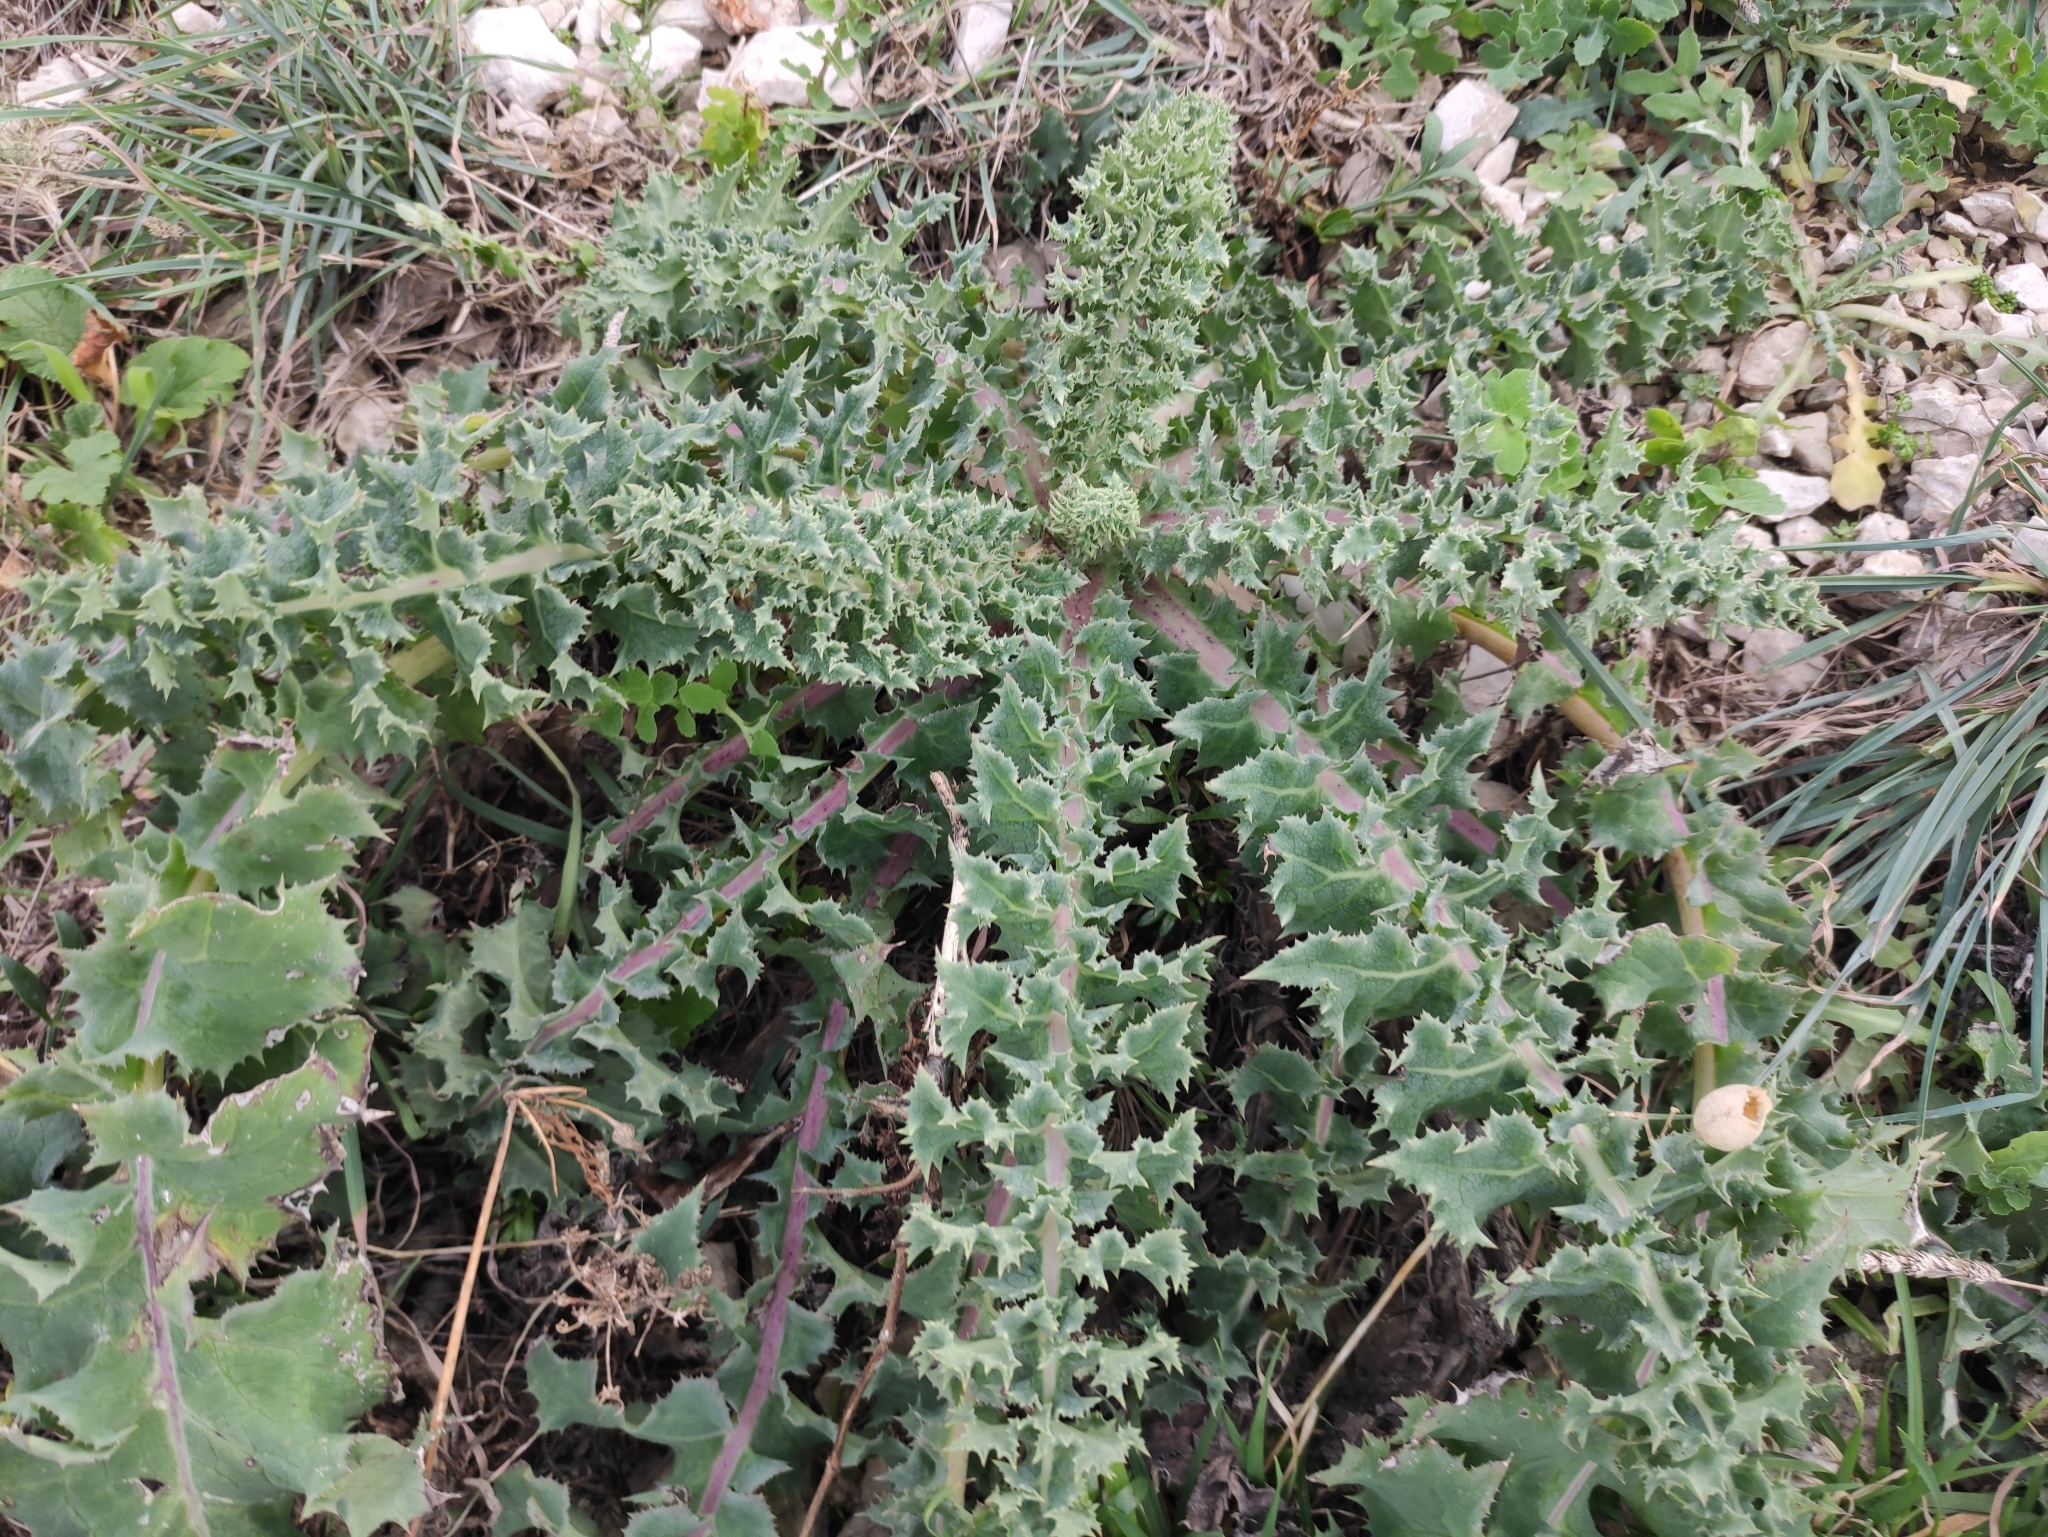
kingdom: Plantae
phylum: Tracheophyta
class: Magnoliopsida
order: Asterales
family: Asteraceae
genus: Sonchus
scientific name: Sonchus asper
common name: Prickly sow-thistle
